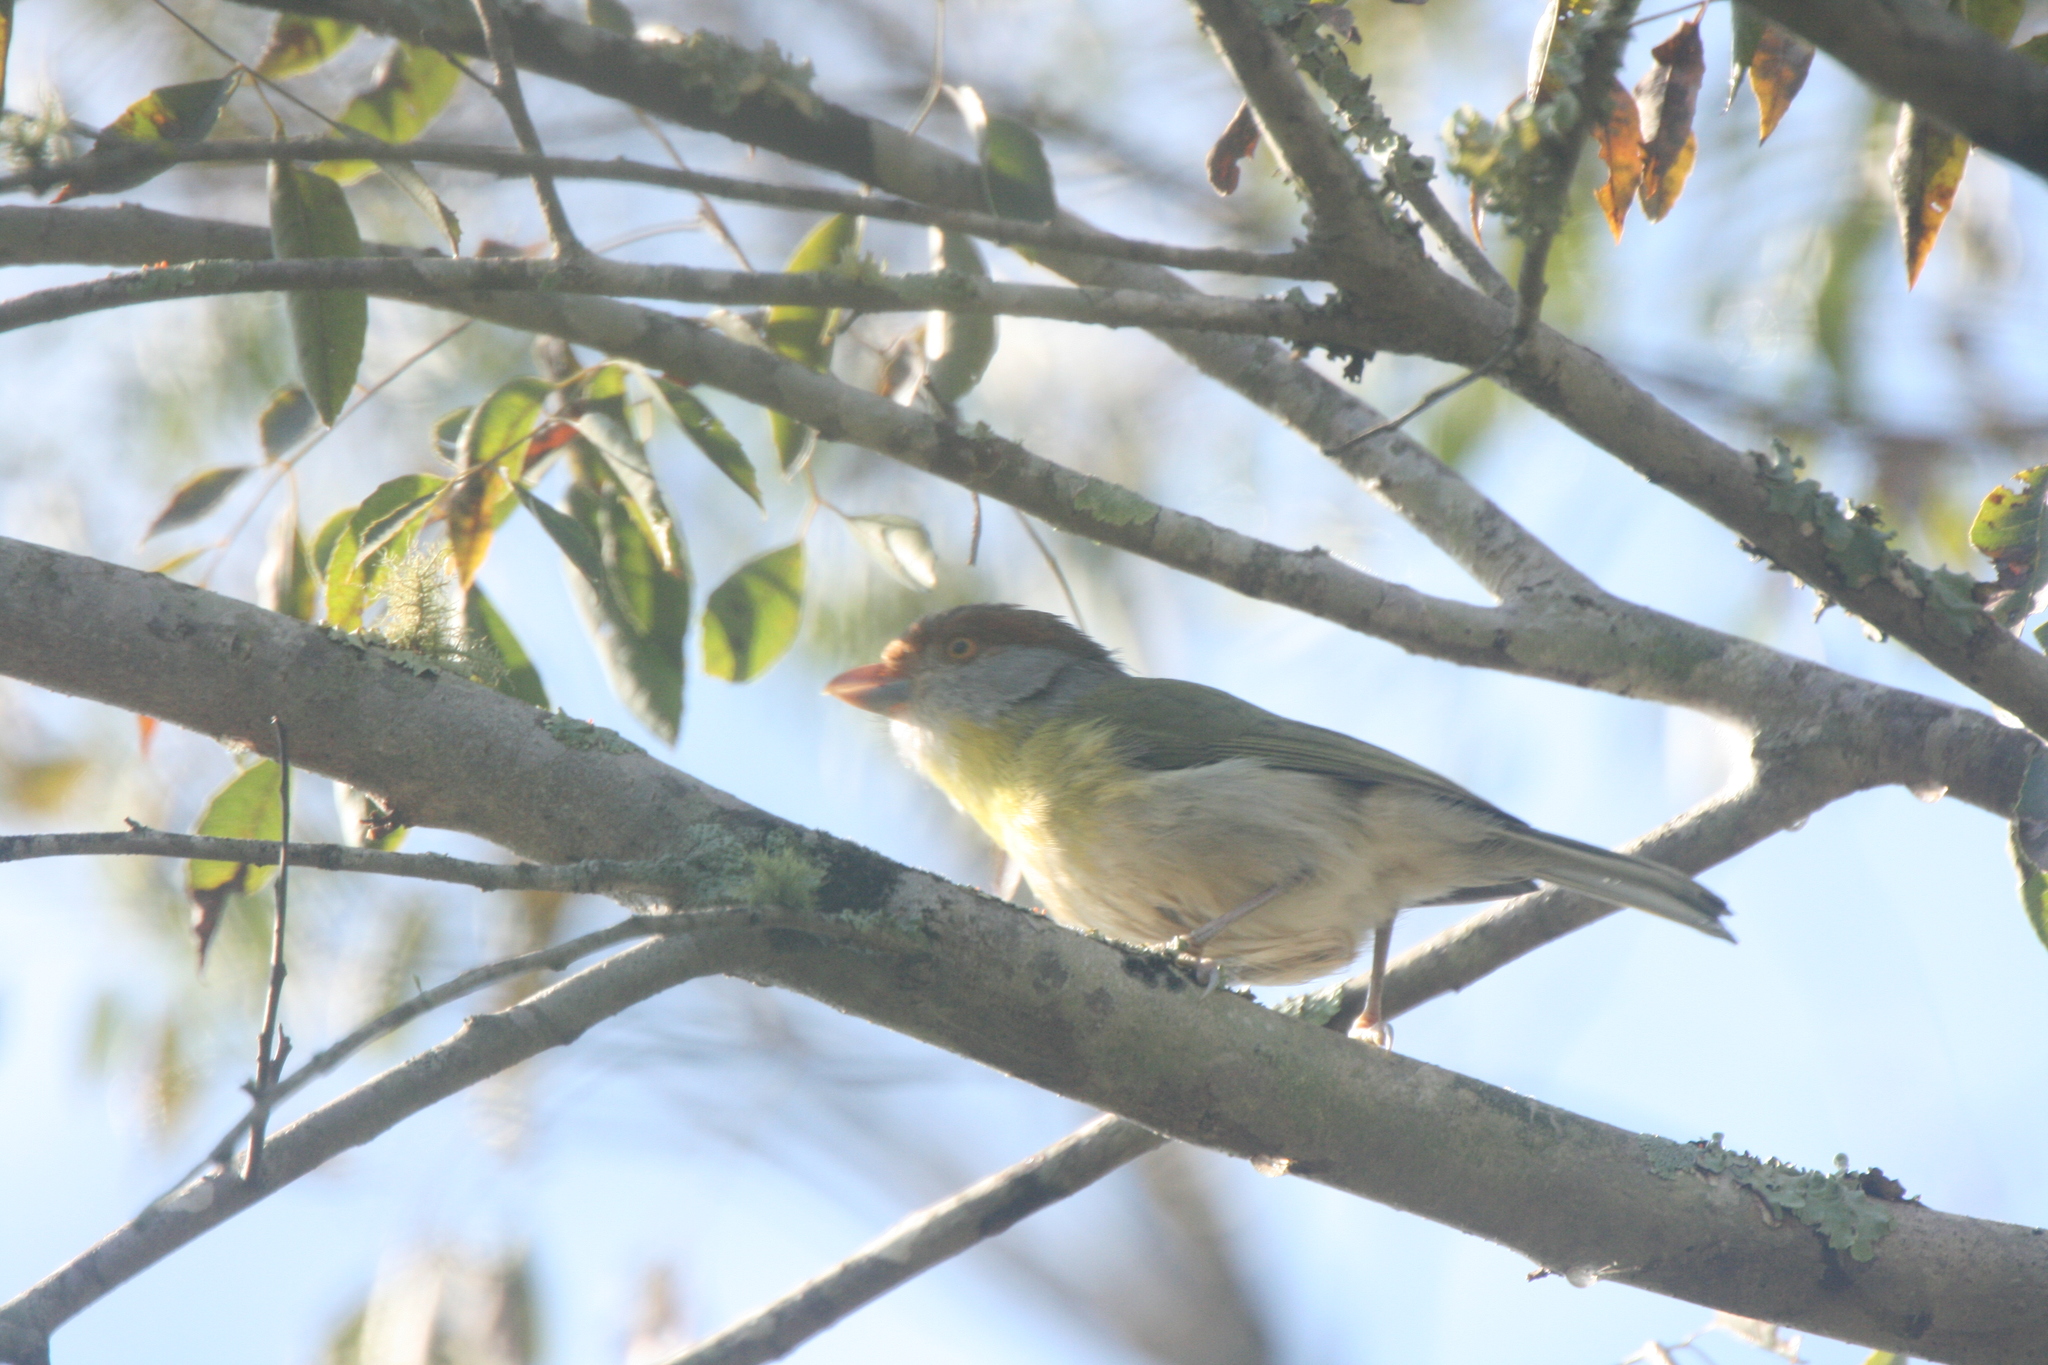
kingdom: Animalia
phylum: Chordata
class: Aves
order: Passeriformes
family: Vireonidae
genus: Cyclarhis
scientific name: Cyclarhis gujanensis
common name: Rufous-browed peppershrike
